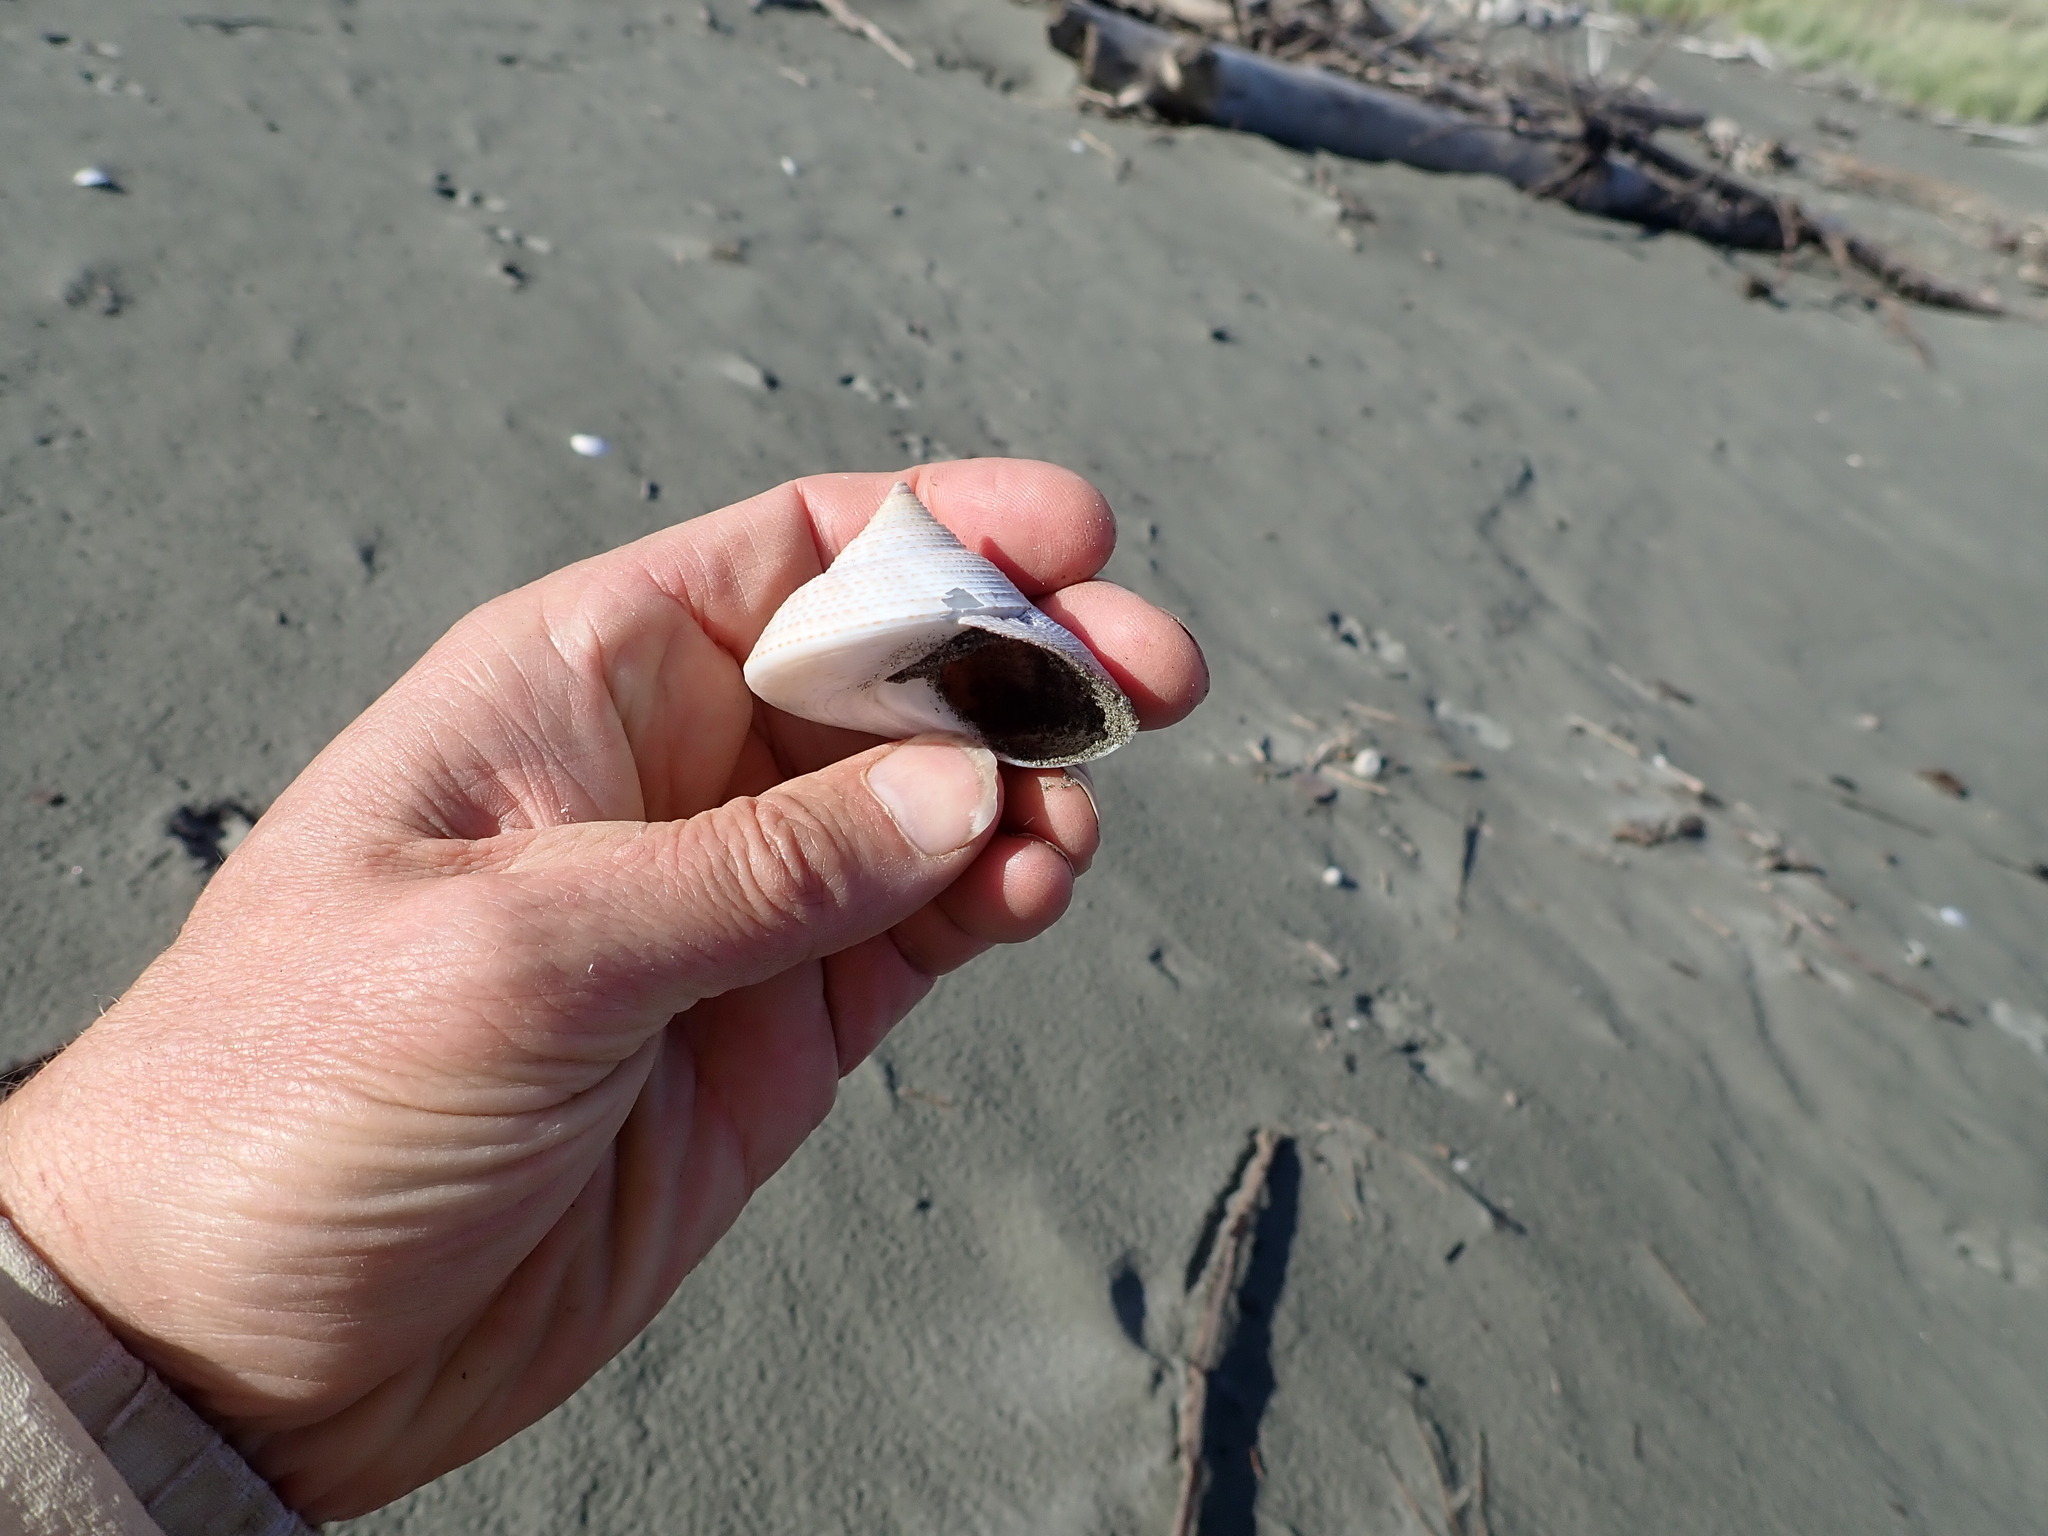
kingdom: Animalia
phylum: Mollusca
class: Gastropoda
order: Trochida
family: Calliostomatidae
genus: Maurea
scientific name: Maurea selecta
